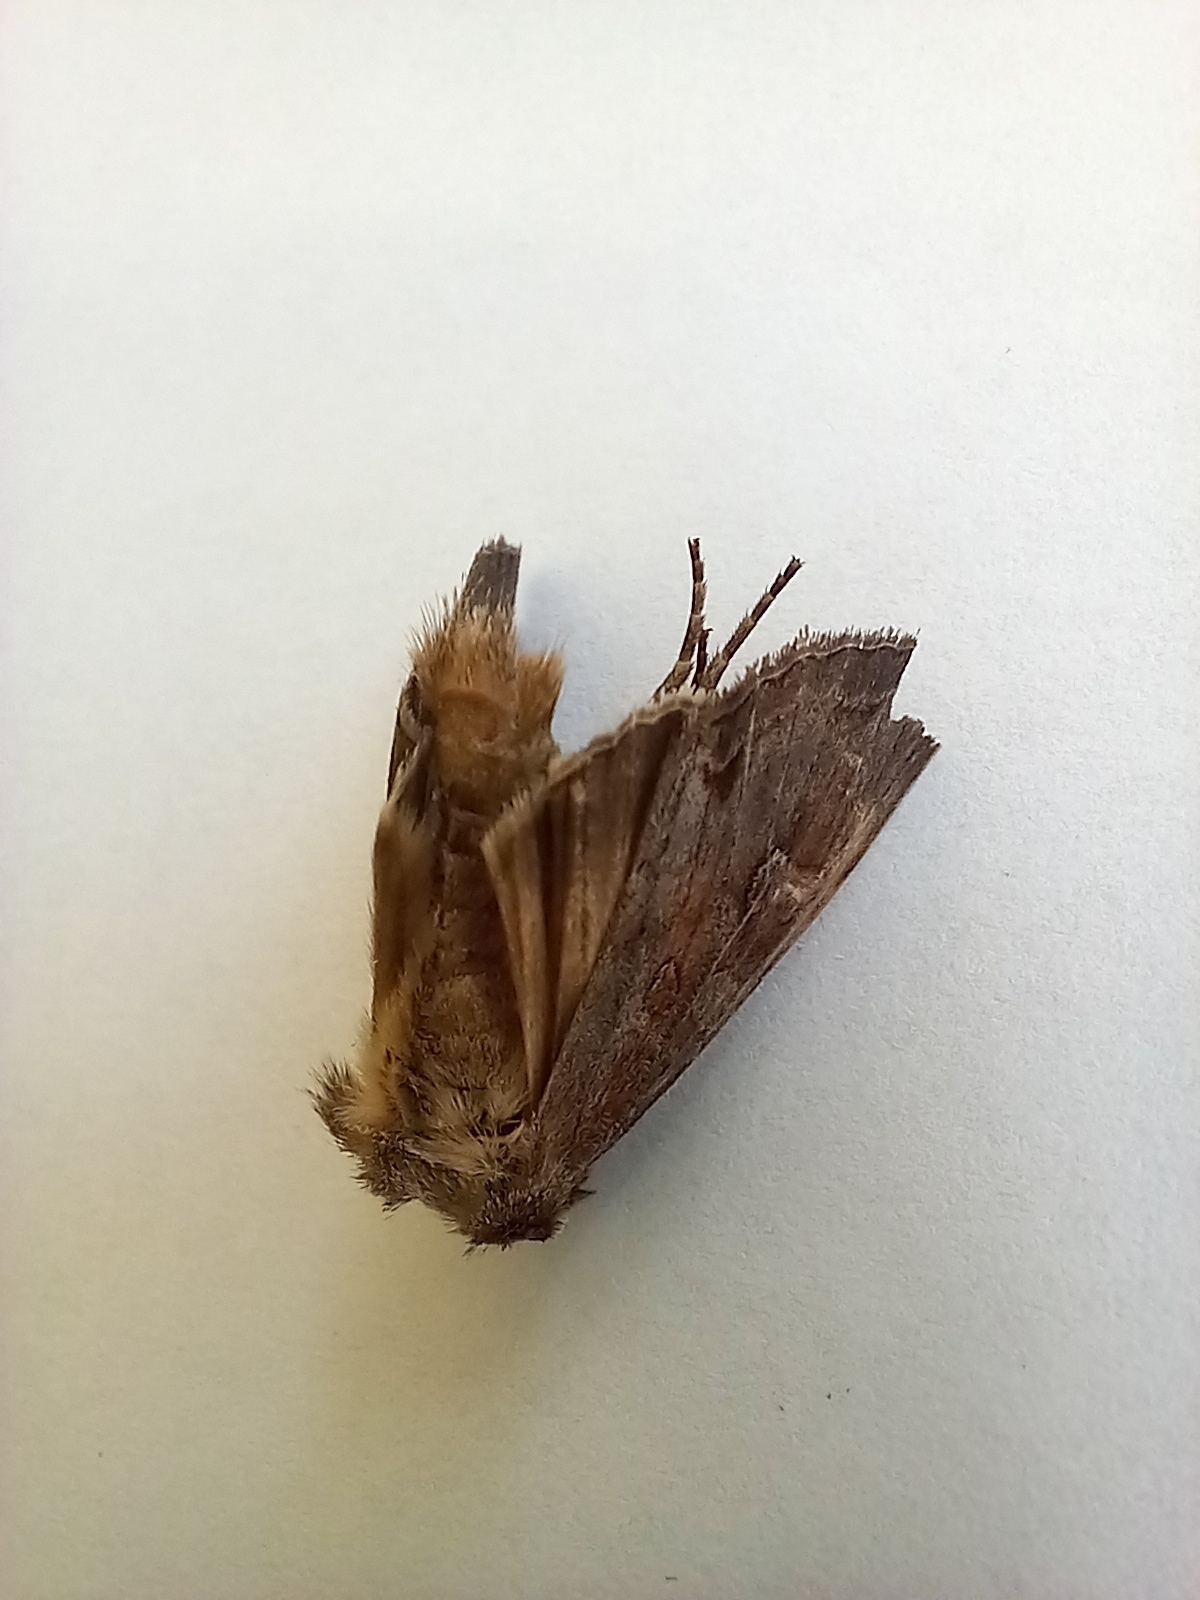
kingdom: Animalia
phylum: Arthropoda
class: Insecta
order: Lepidoptera
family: Noctuidae
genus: Polia
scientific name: Polia bombycina
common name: Pale shining brown
